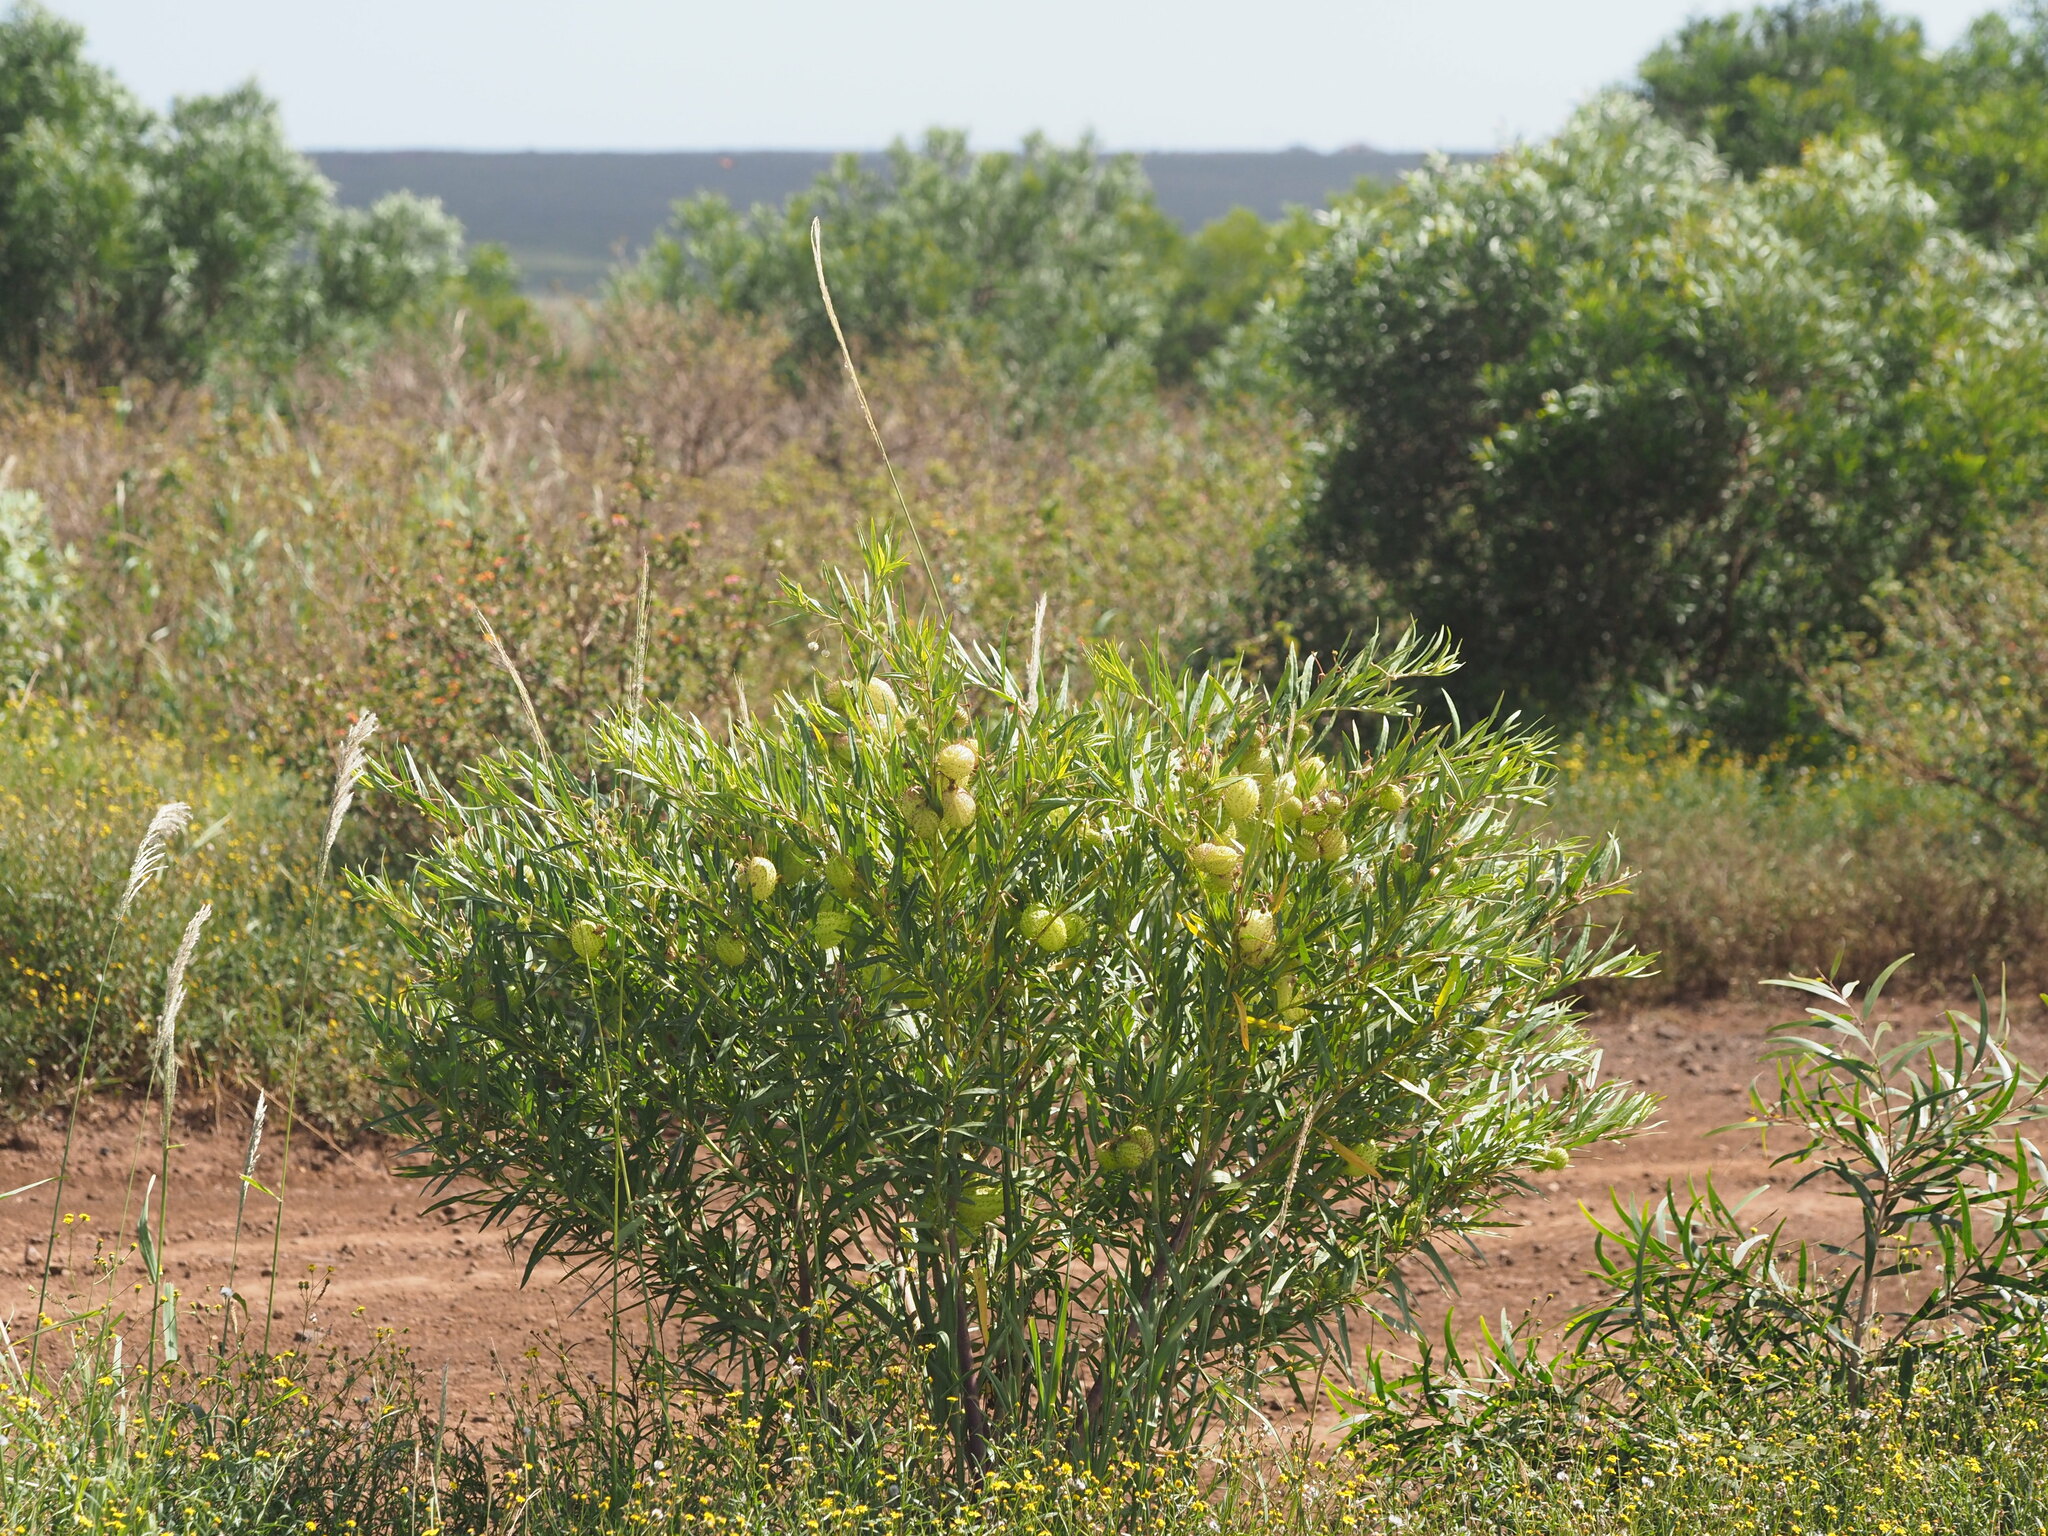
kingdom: Plantae
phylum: Tracheophyta
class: Magnoliopsida
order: Gentianales
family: Apocynaceae
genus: Gomphocarpus
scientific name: Gomphocarpus physocarpus
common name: Balloon cotton bush
